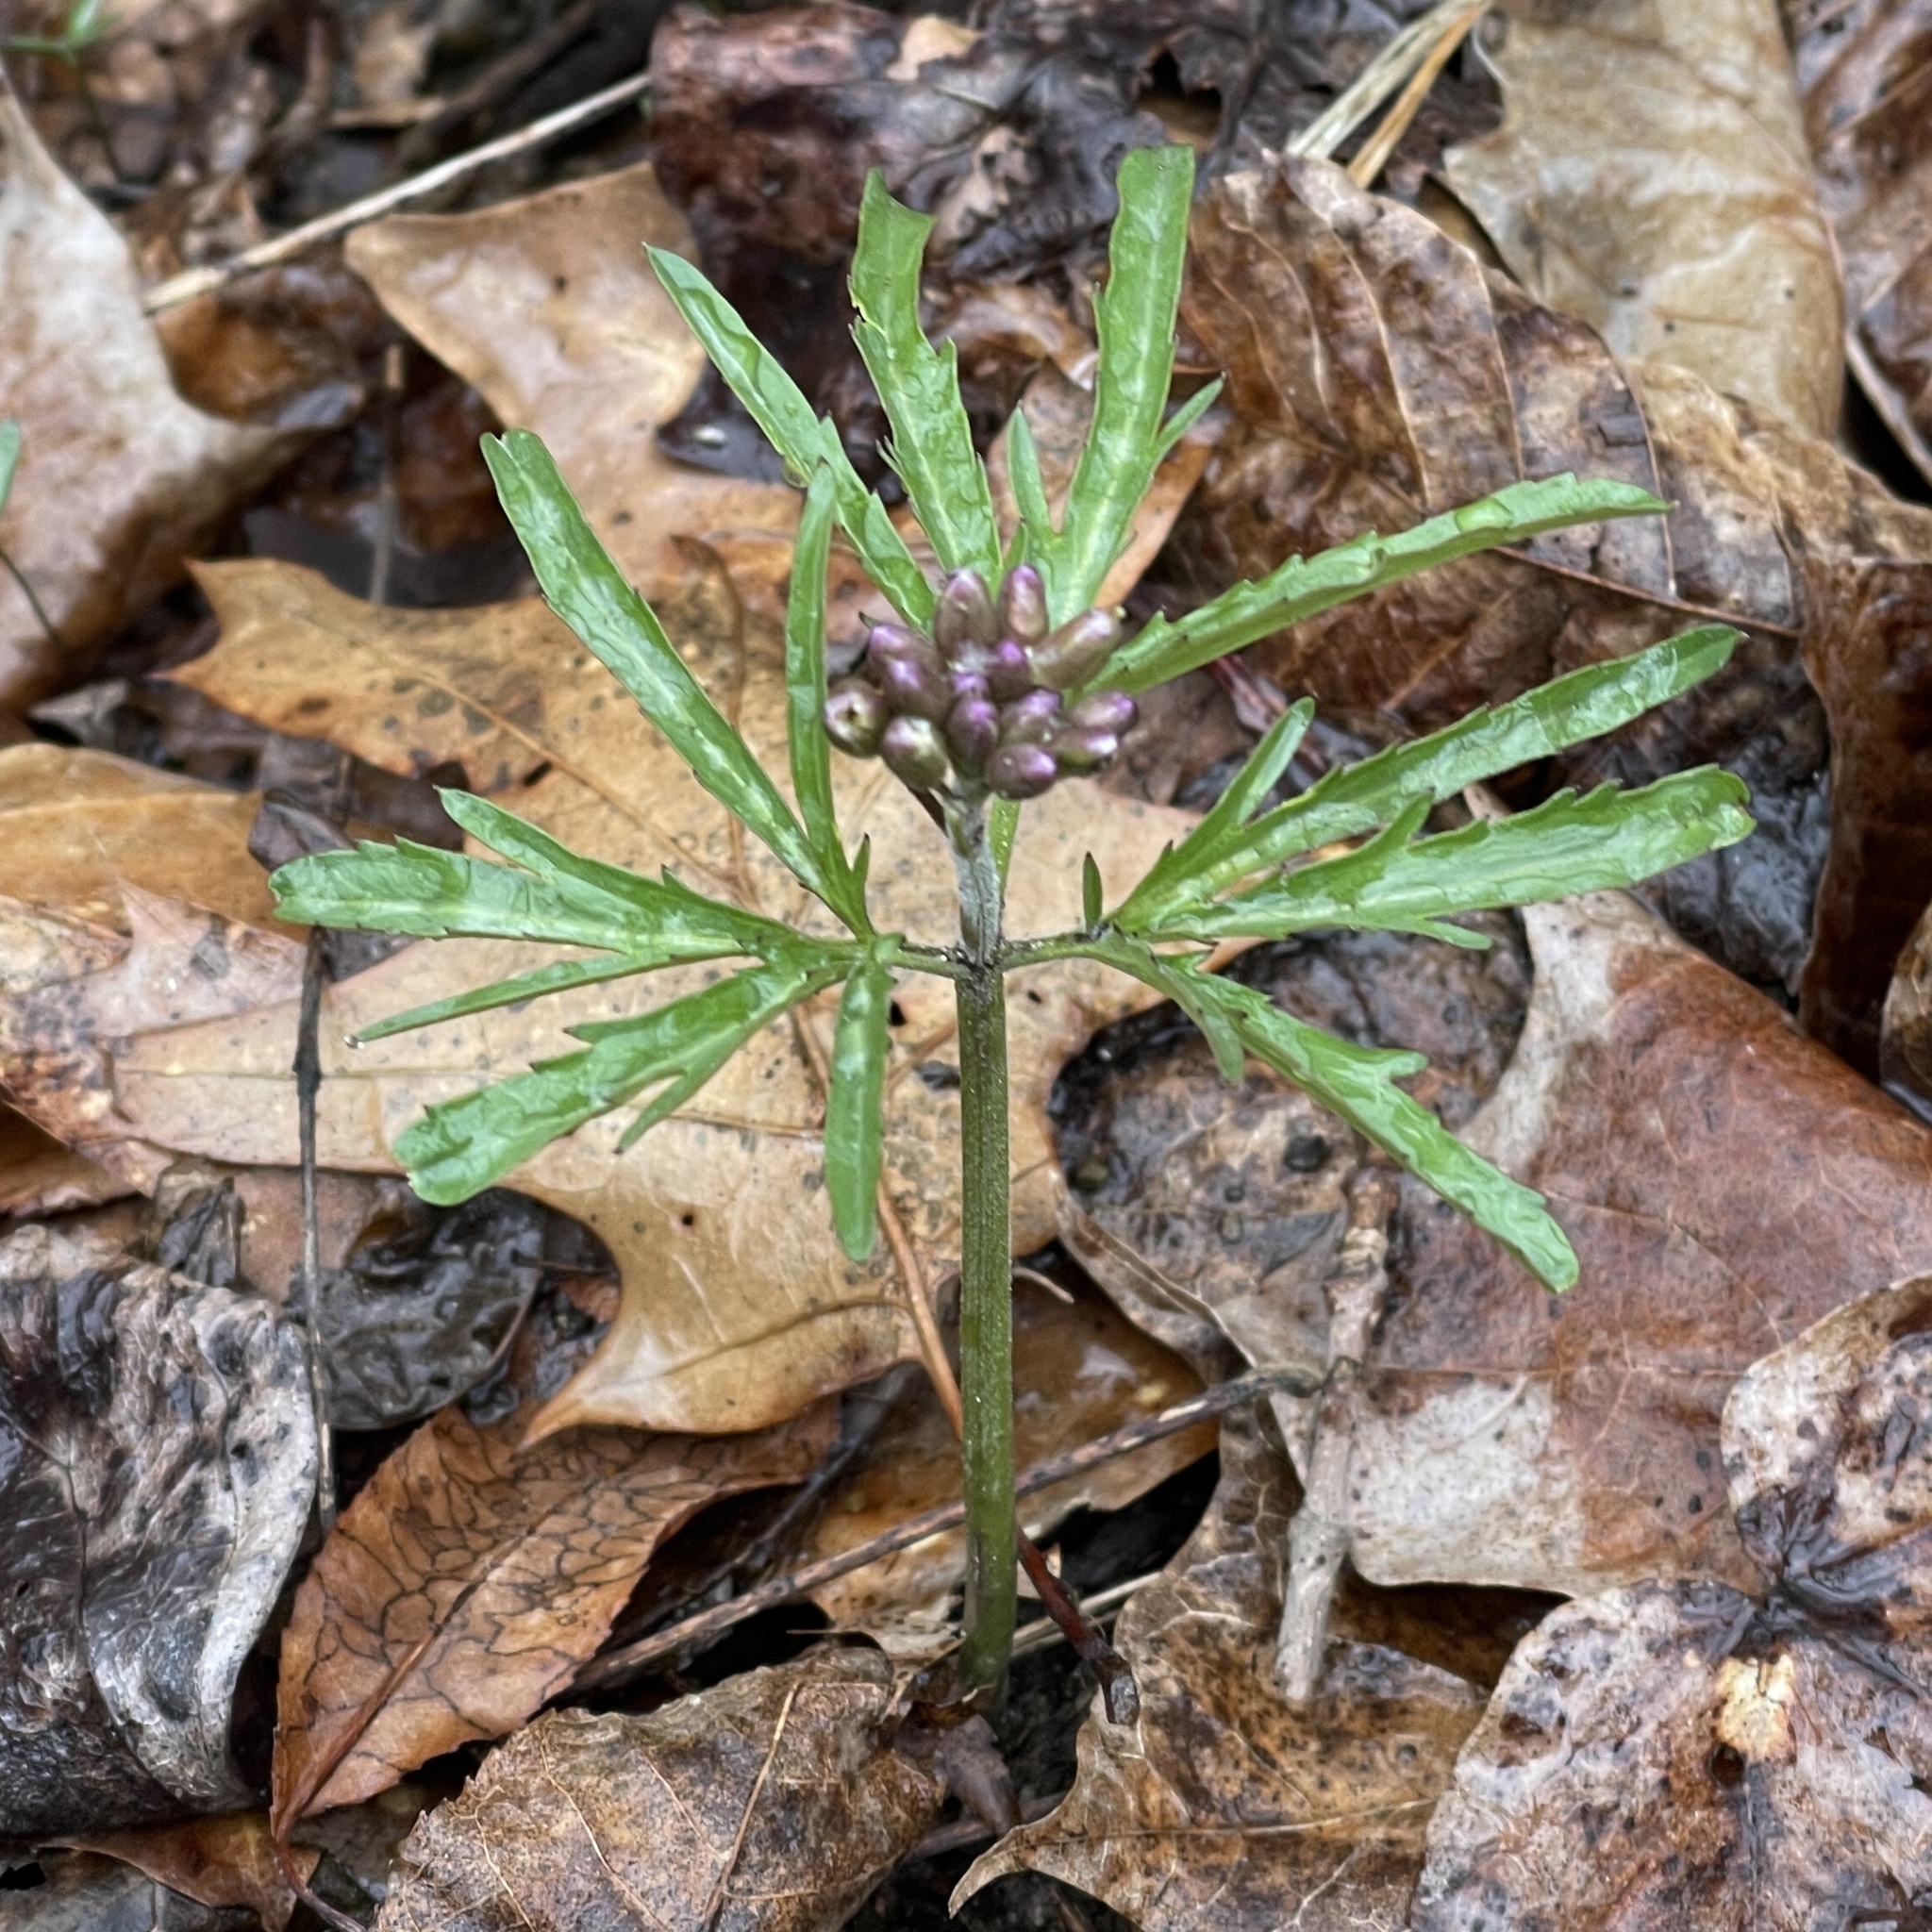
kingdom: Plantae
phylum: Tracheophyta
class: Magnoliopsida
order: Brassicales
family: Brassicaceae
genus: Cardamine
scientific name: Cardamine concatenata
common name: Cut-leaf toothcup
